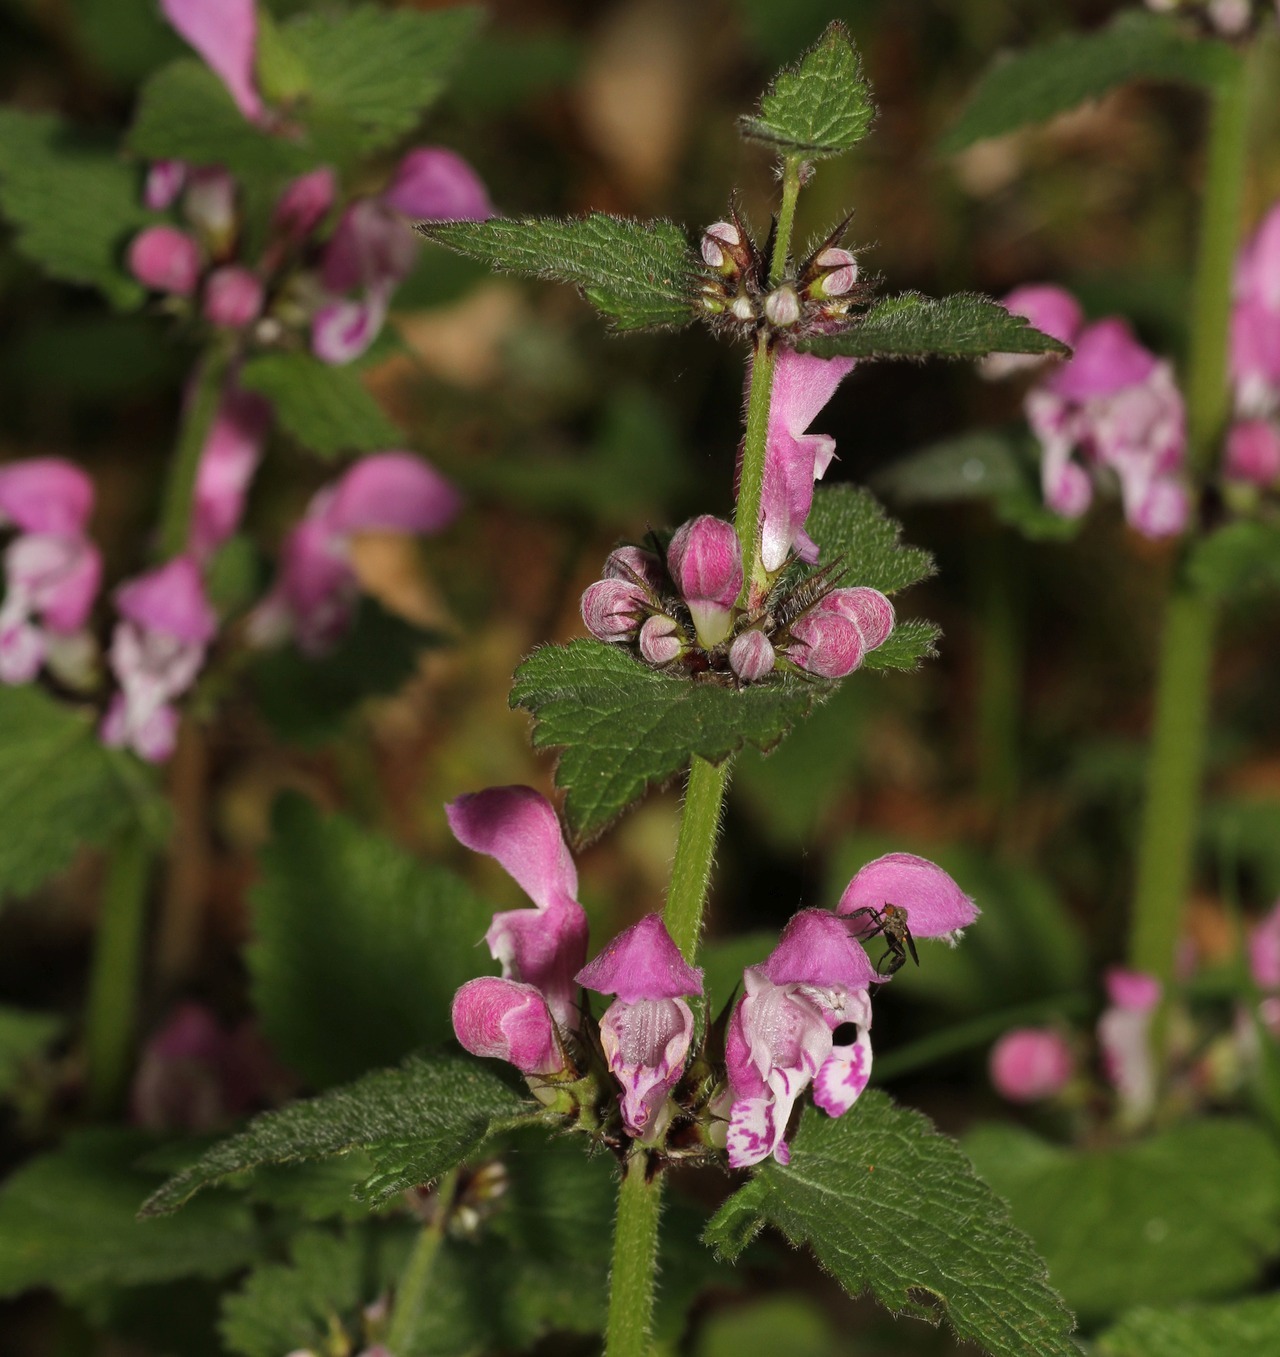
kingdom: Plantae
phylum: Tracheophyta
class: Magnoliopsida
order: Lamiales
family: Lamiaceae
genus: Lamium
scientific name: Lamium maculatum
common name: Spotted dead-nettle
